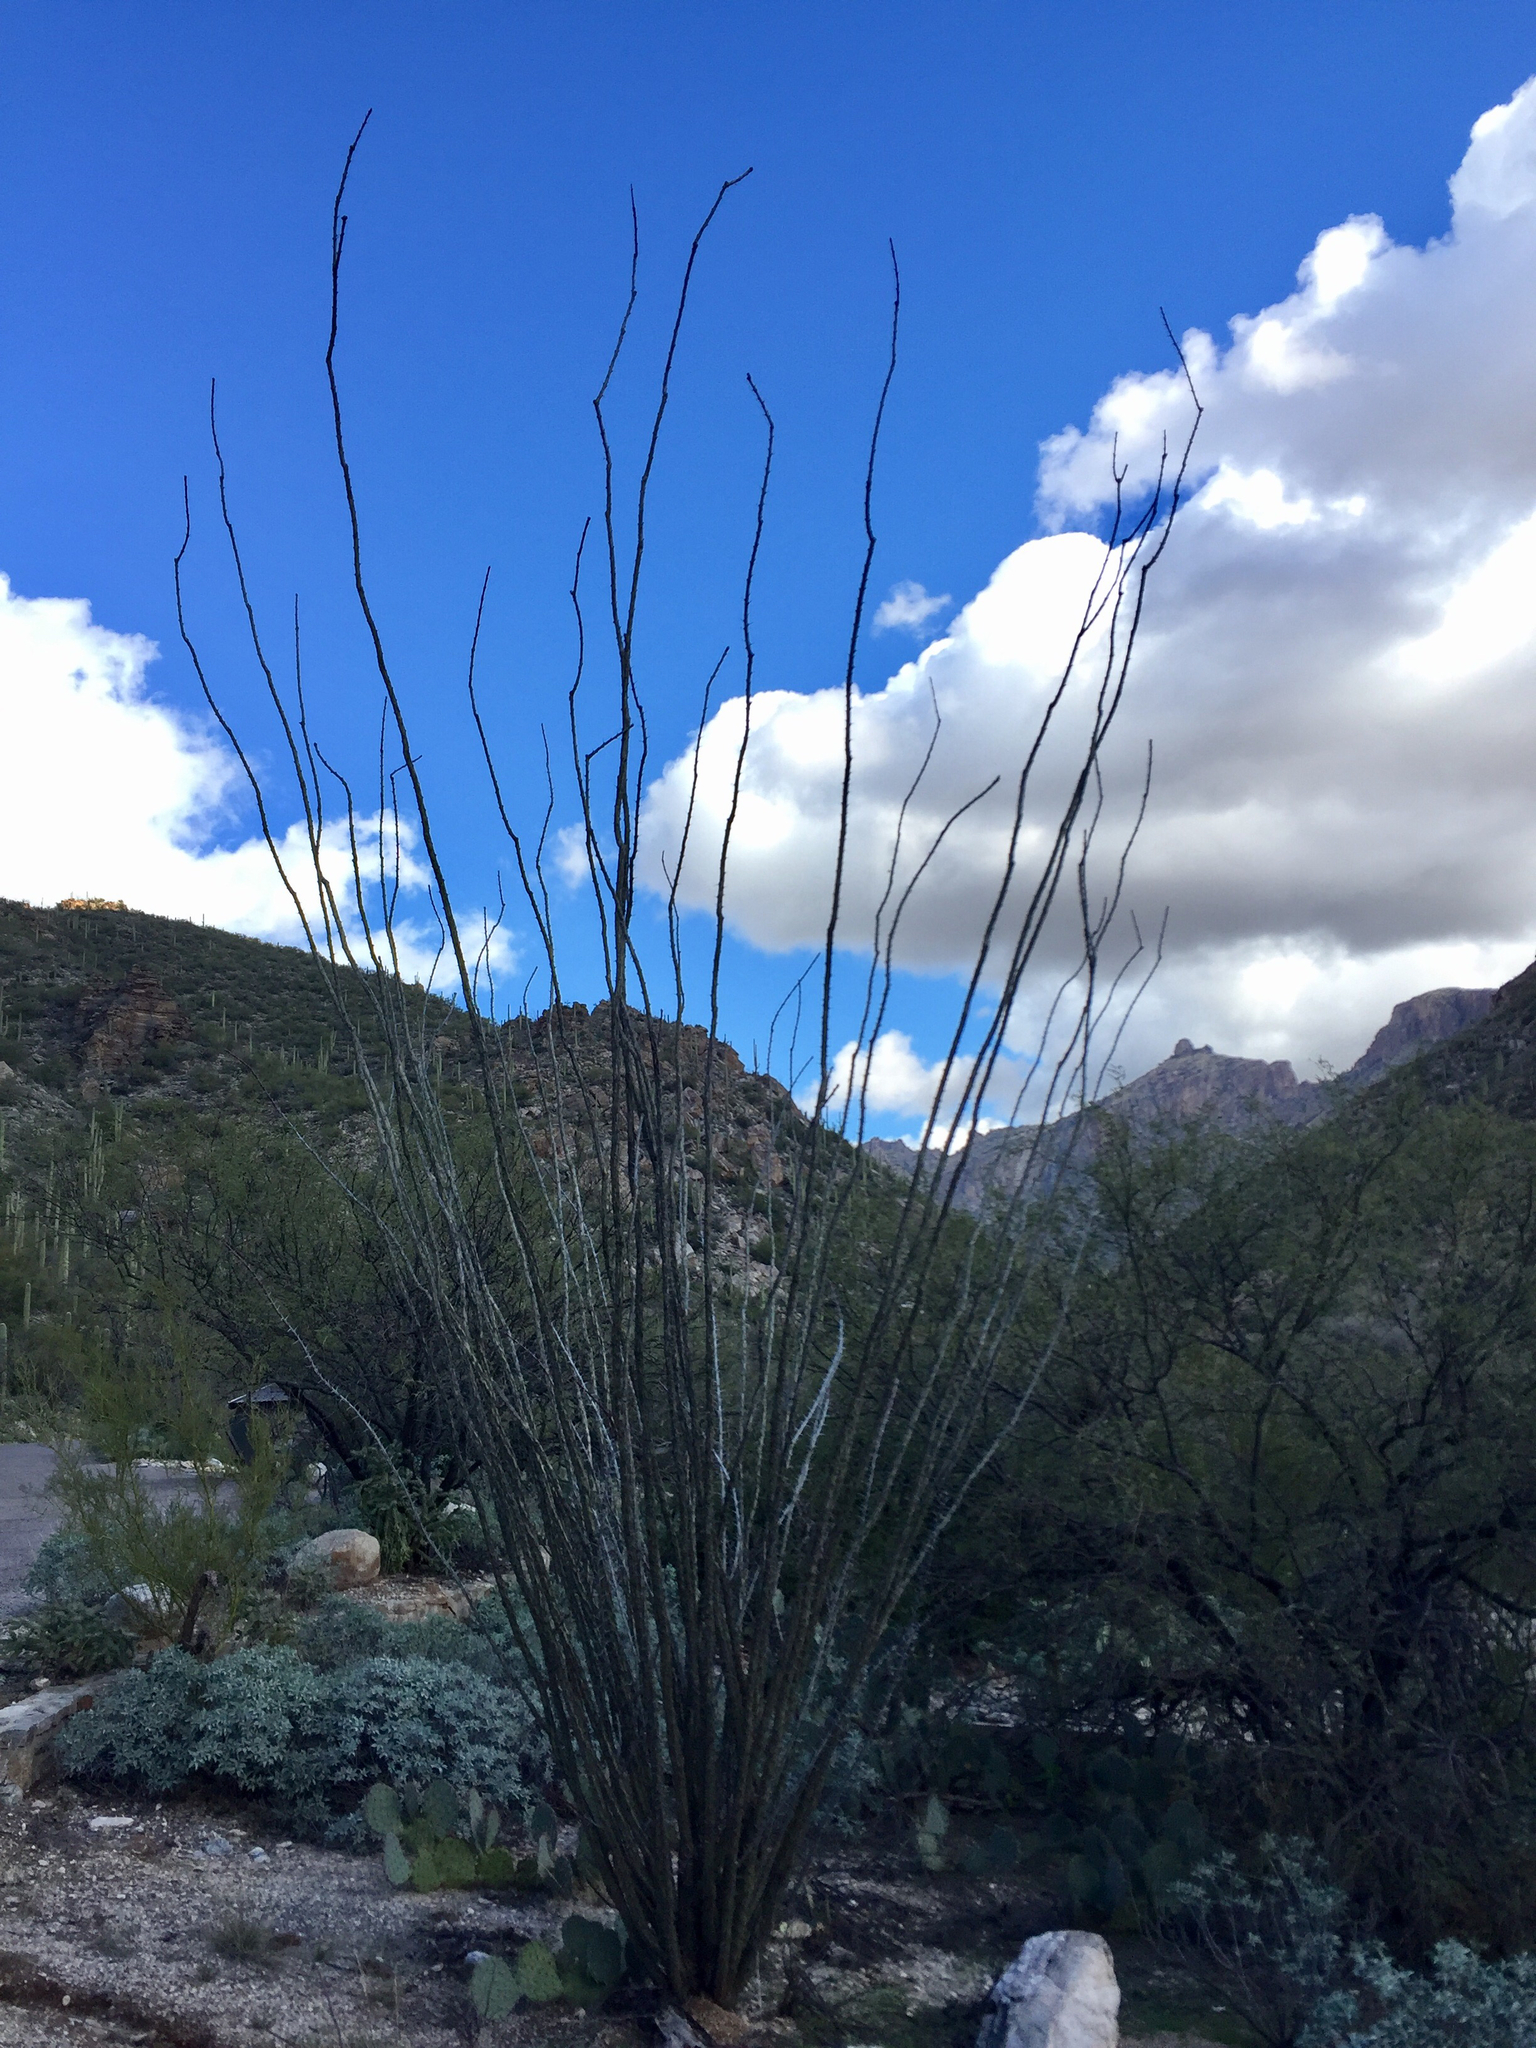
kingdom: Plantae
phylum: Tracheophyta
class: Magnoliopsida
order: Ericales
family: Fouquieriaceae
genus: Fouquieria
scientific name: Fouquieria splendens
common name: Vine-cactus
